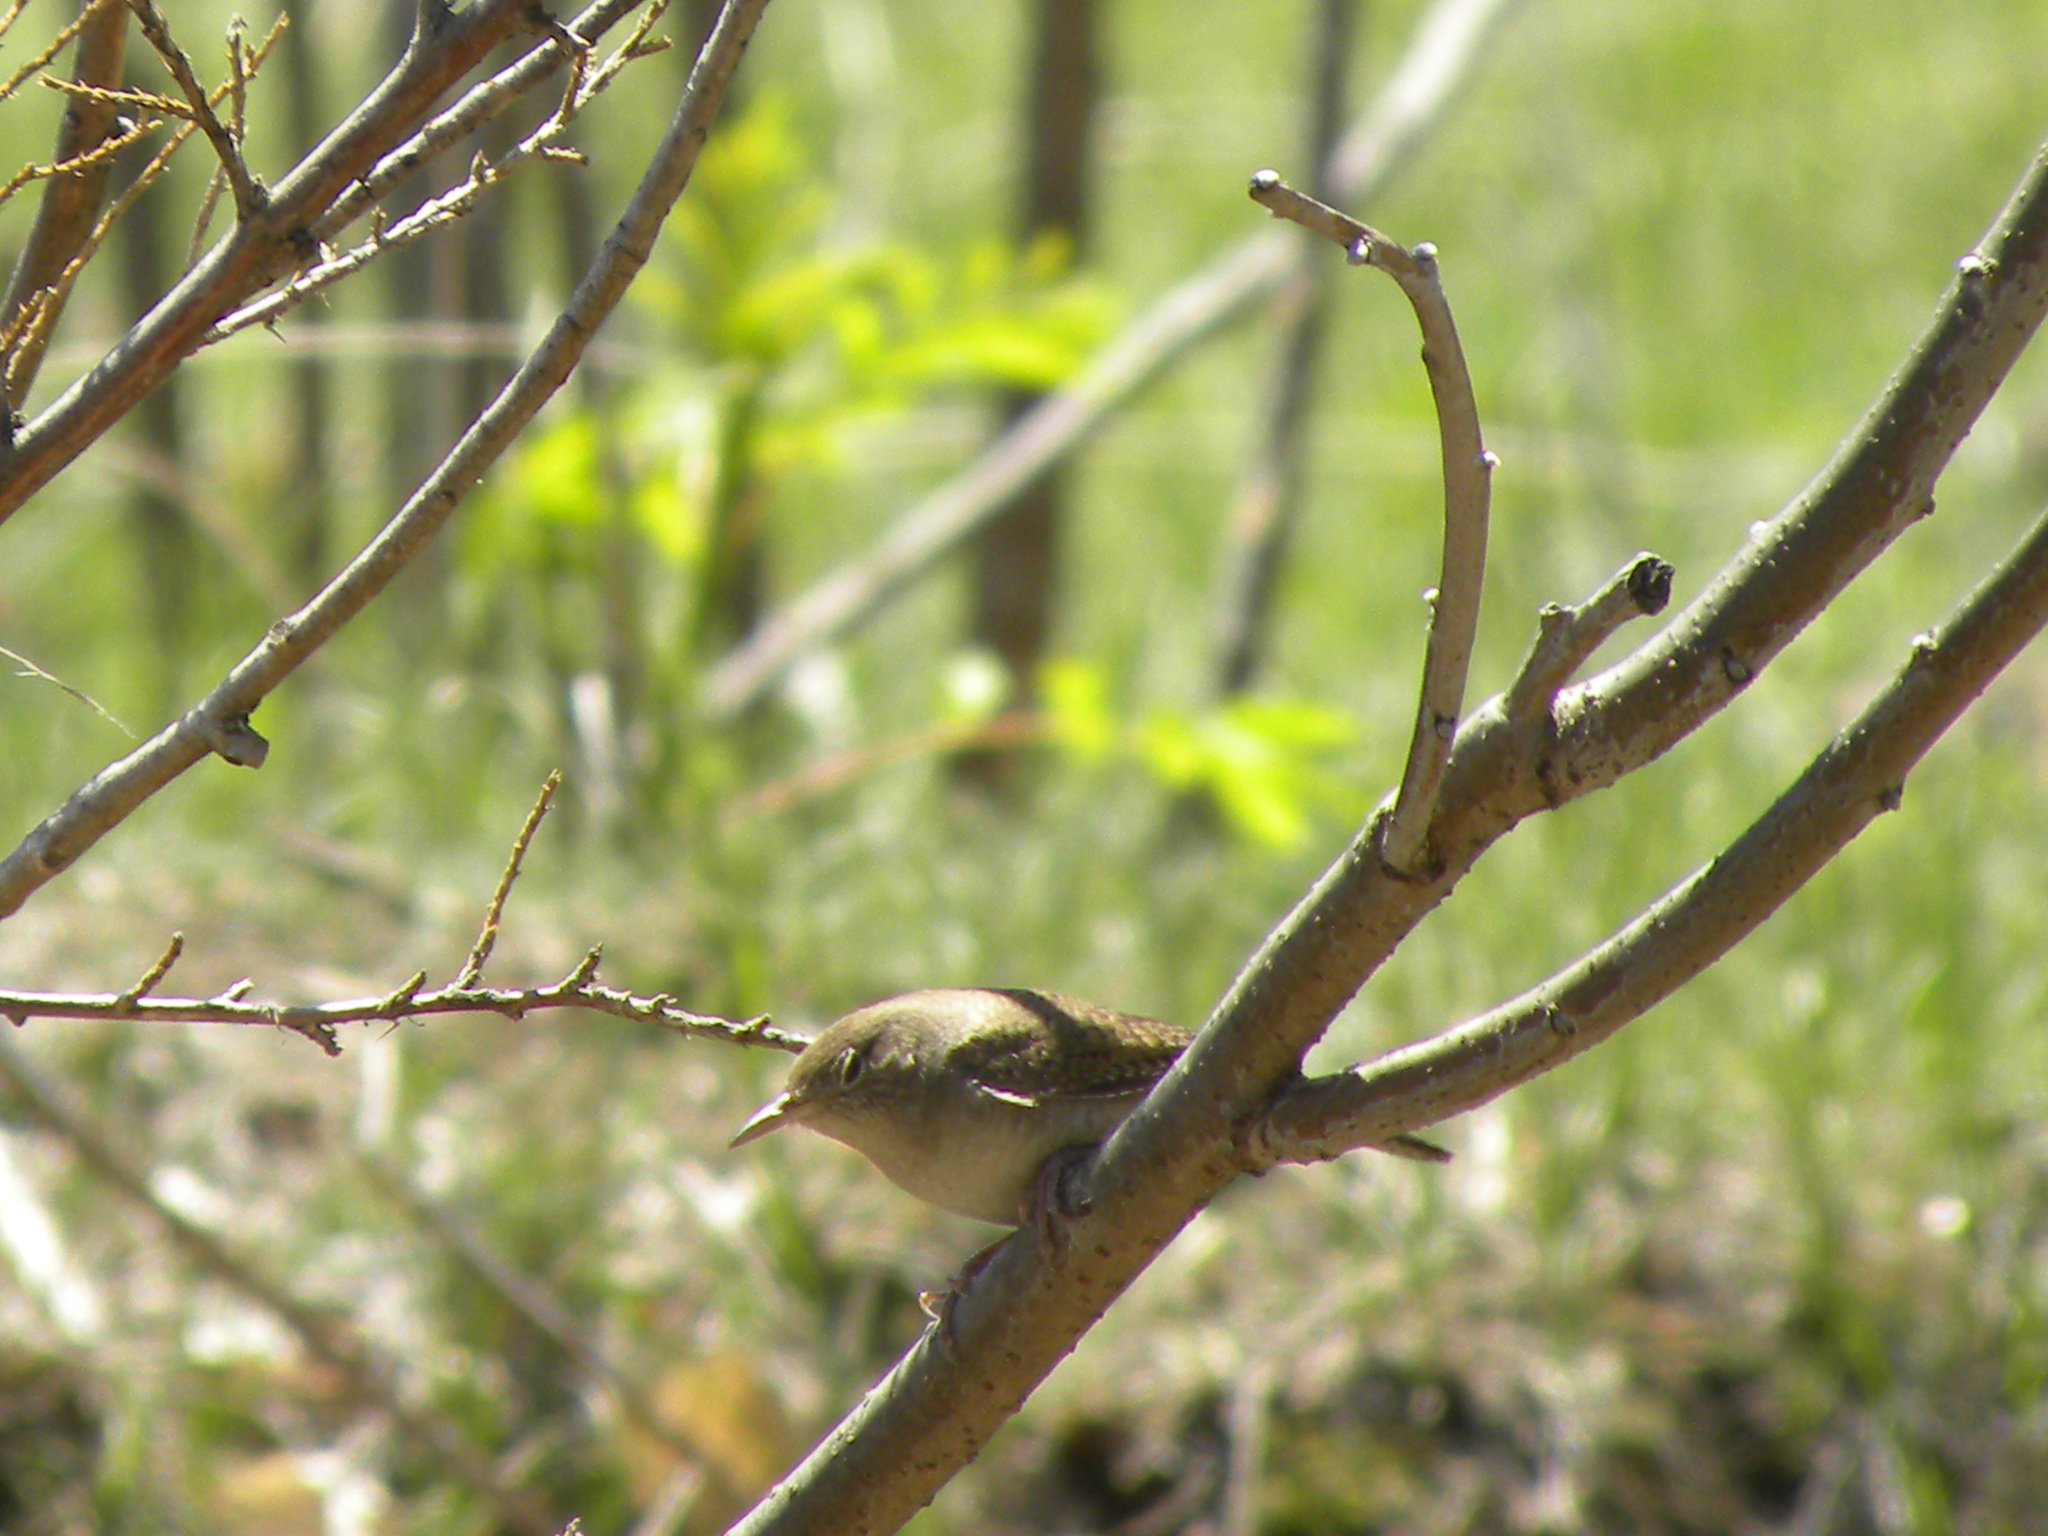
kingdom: Animalia
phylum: Chordata
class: Aves
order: Passeriformes
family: Troglodytidae
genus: Troglodytes
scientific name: Troglodytes aedon
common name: House wren
